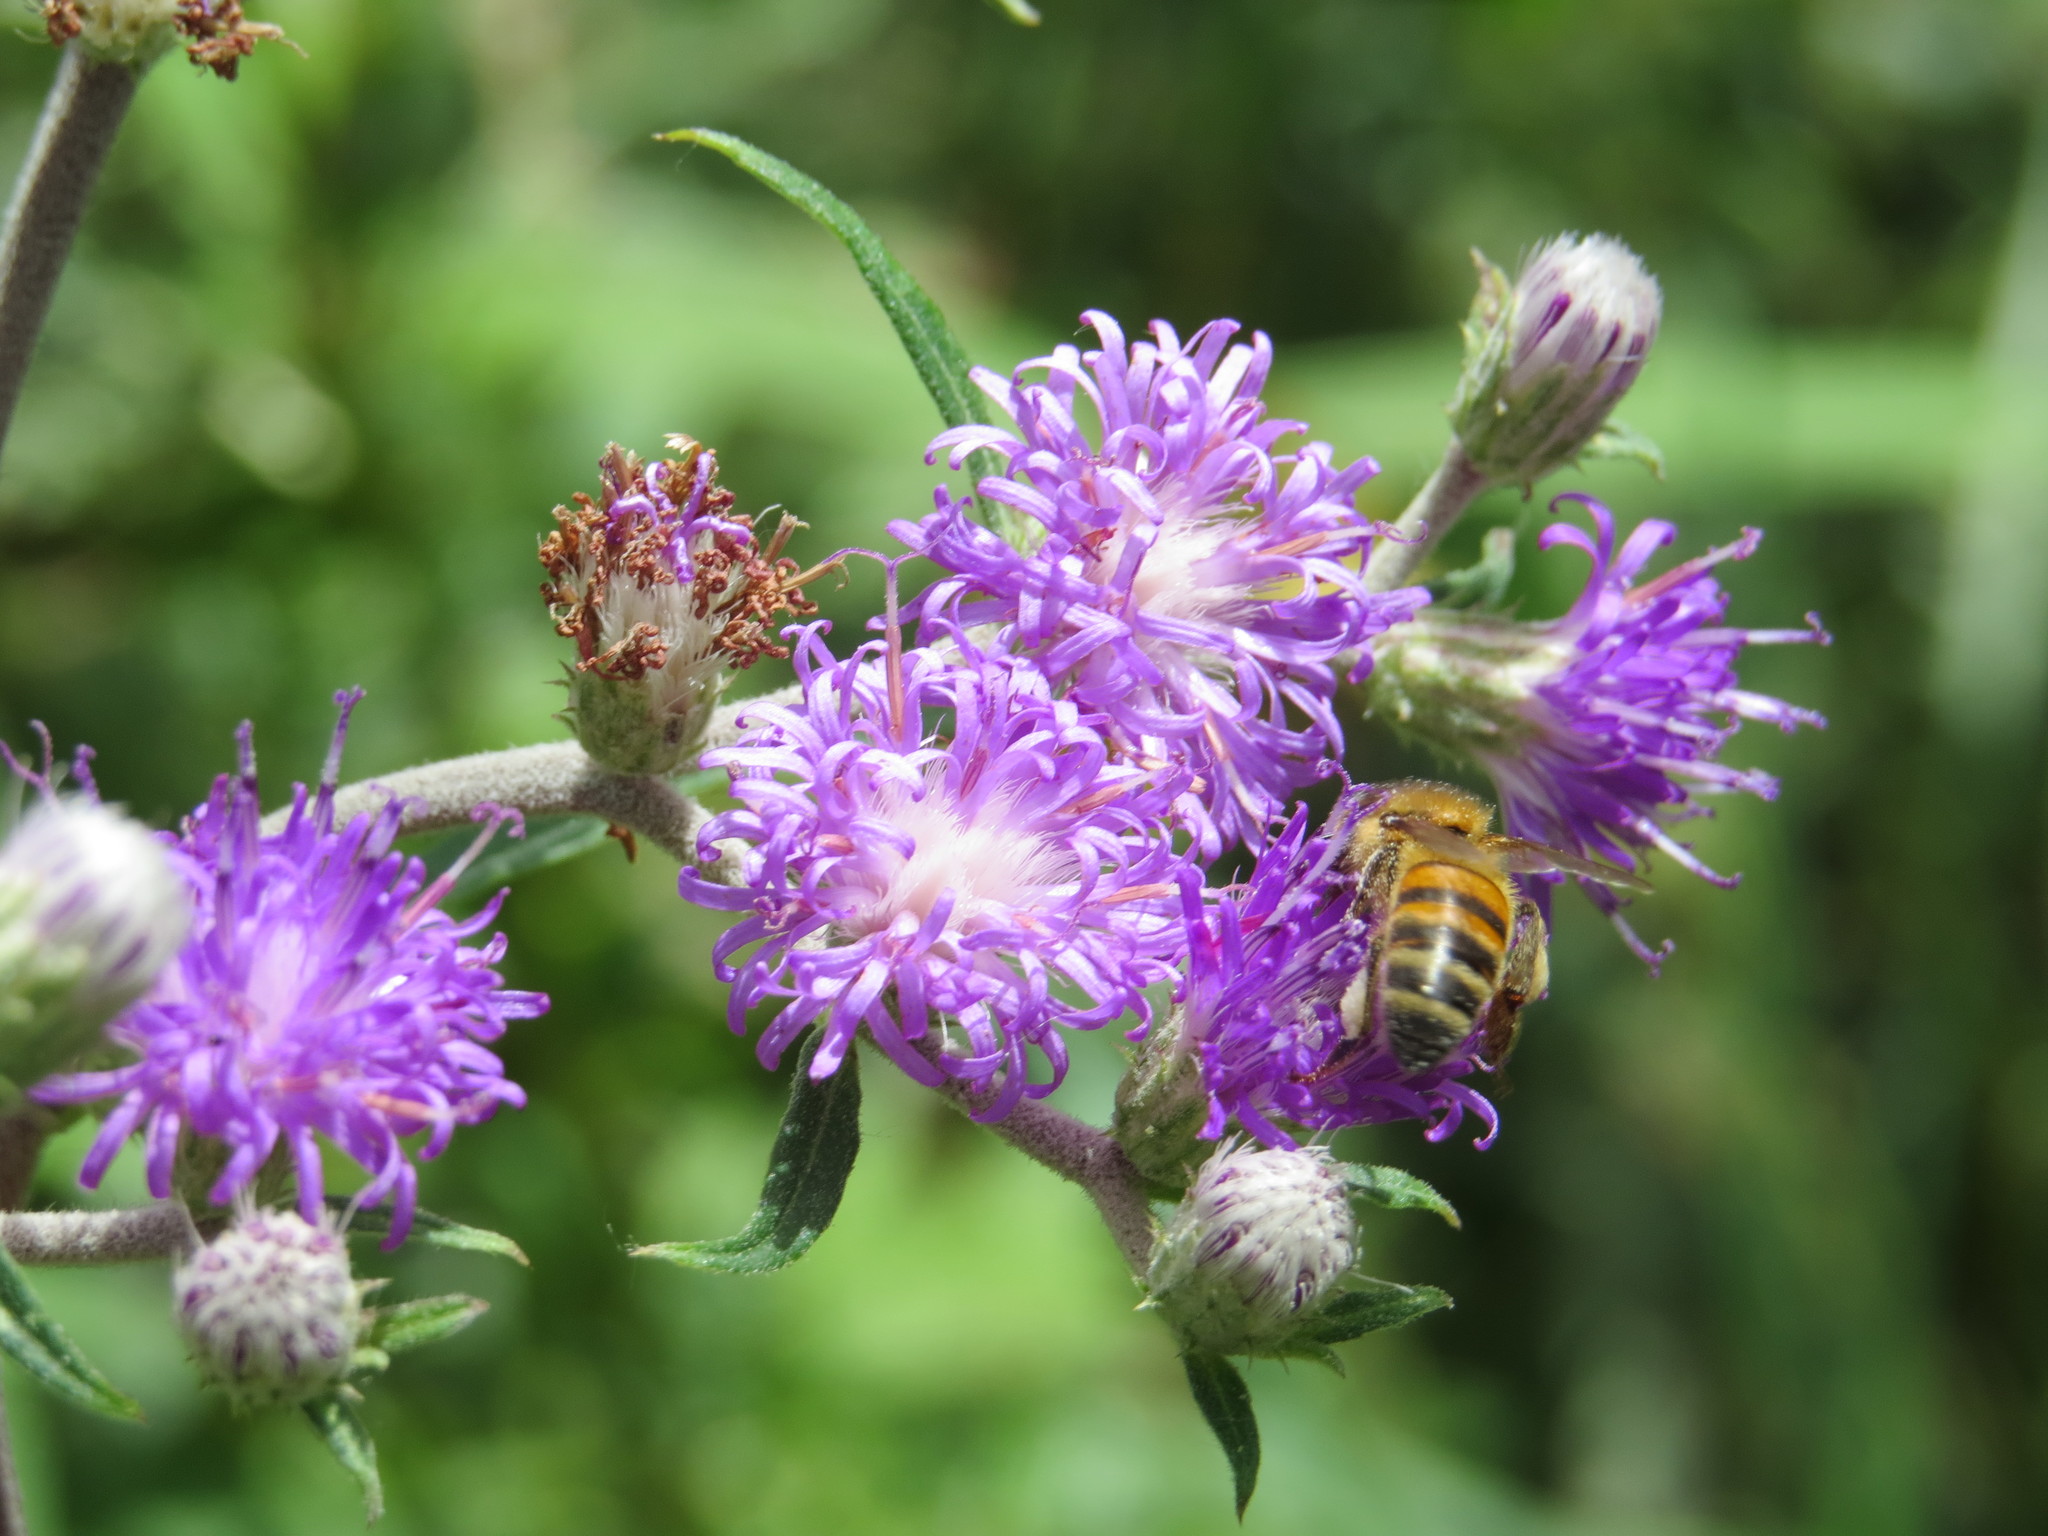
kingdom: Animalia
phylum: Arthropoda
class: Insecta
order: Hymenoptera
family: Apidae
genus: Apis
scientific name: Apis mellifera
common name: Honey bee
